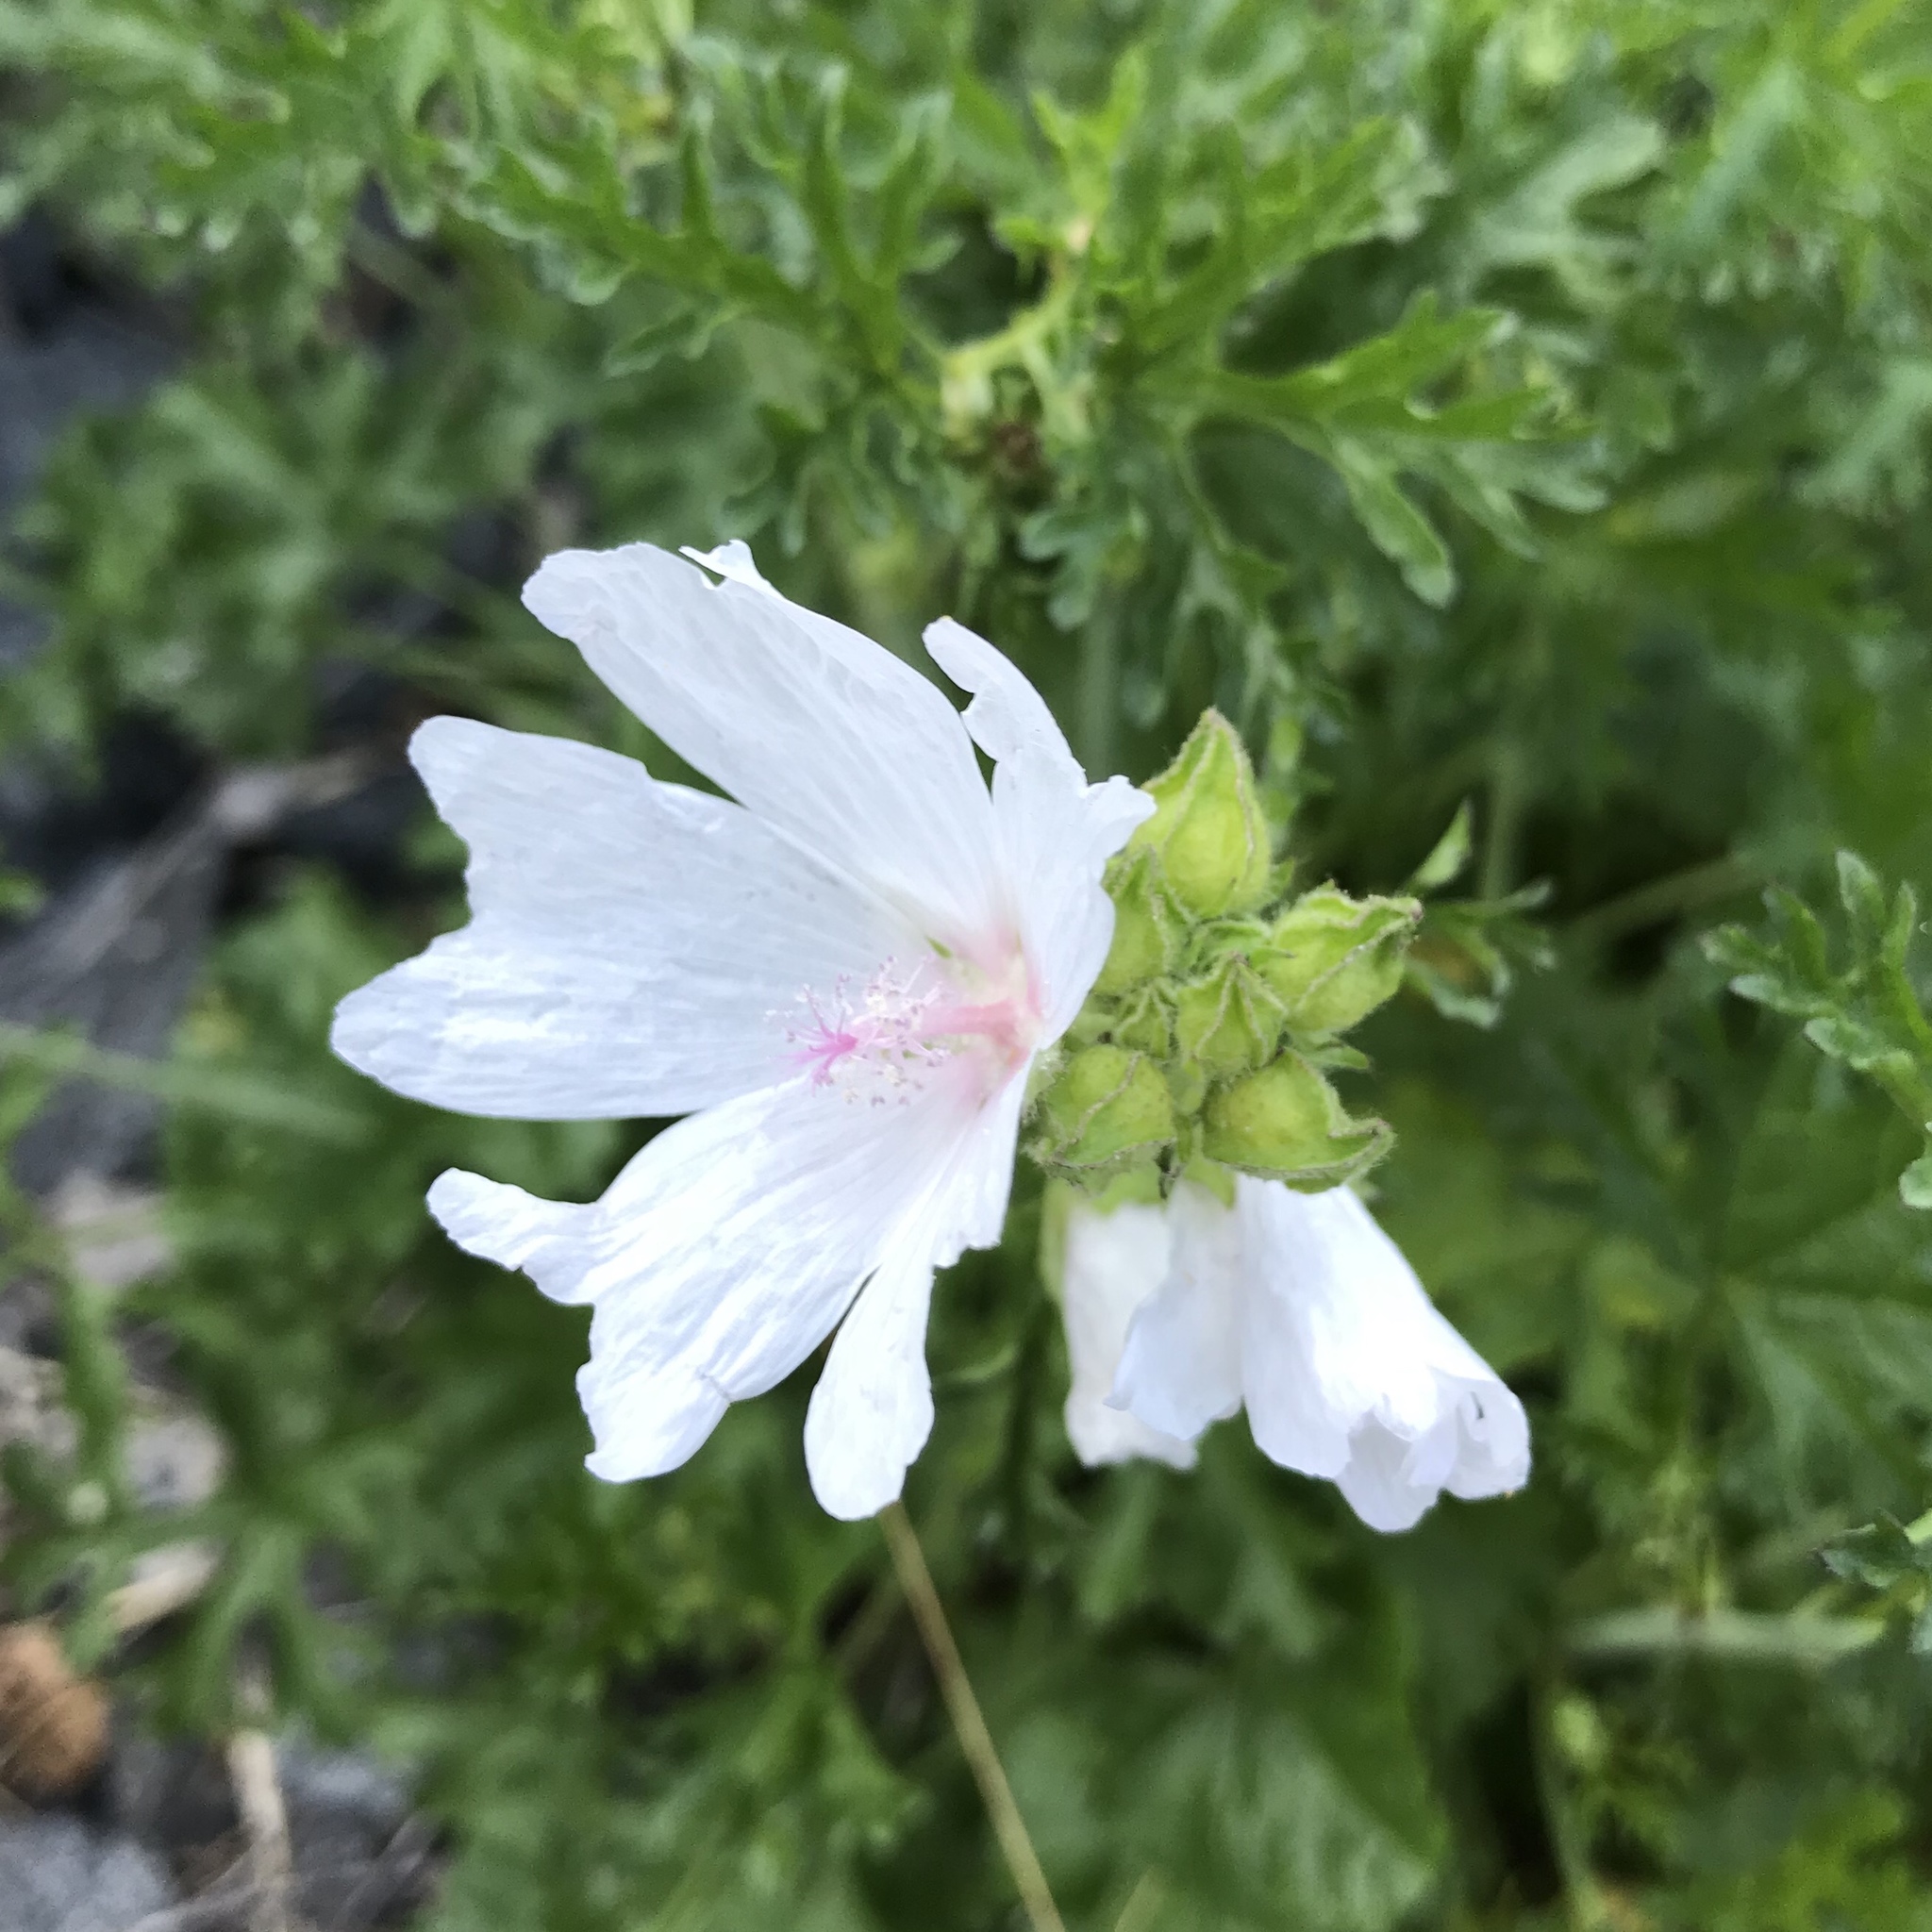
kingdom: Plantae
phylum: Tracheophyta
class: Magnoliopsida
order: Malvales
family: Malvaceae
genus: Malva
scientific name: Malva moschata
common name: Musk mallow
